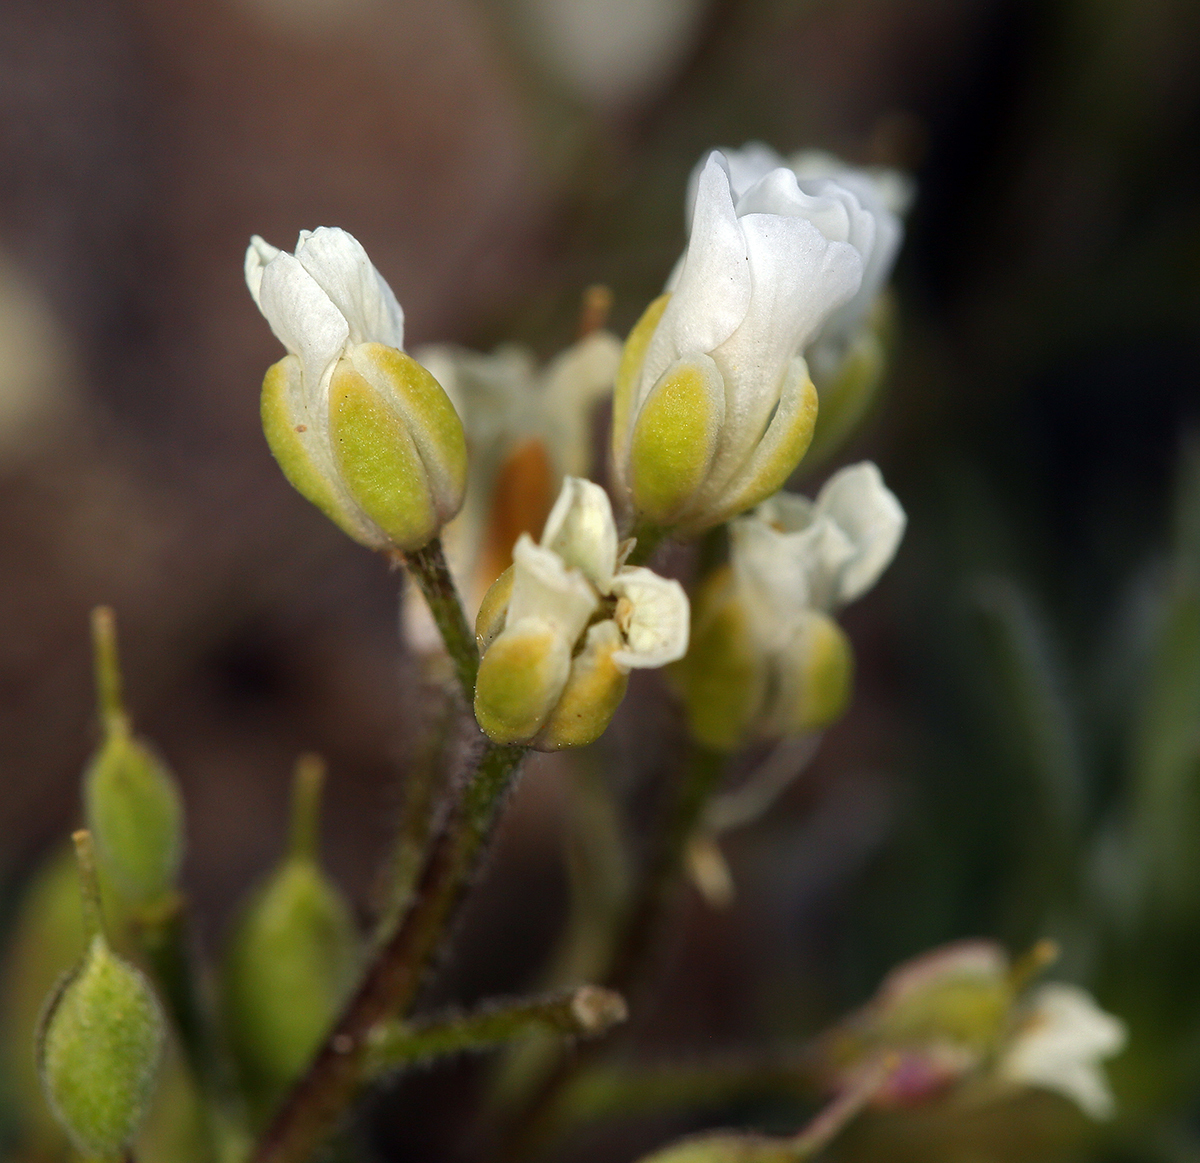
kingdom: Plantae
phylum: Tracheophyta
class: Magnoliopsida
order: Brassicales
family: Brassicaceae
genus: Cusickiella
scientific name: Cusickiella douglasii
